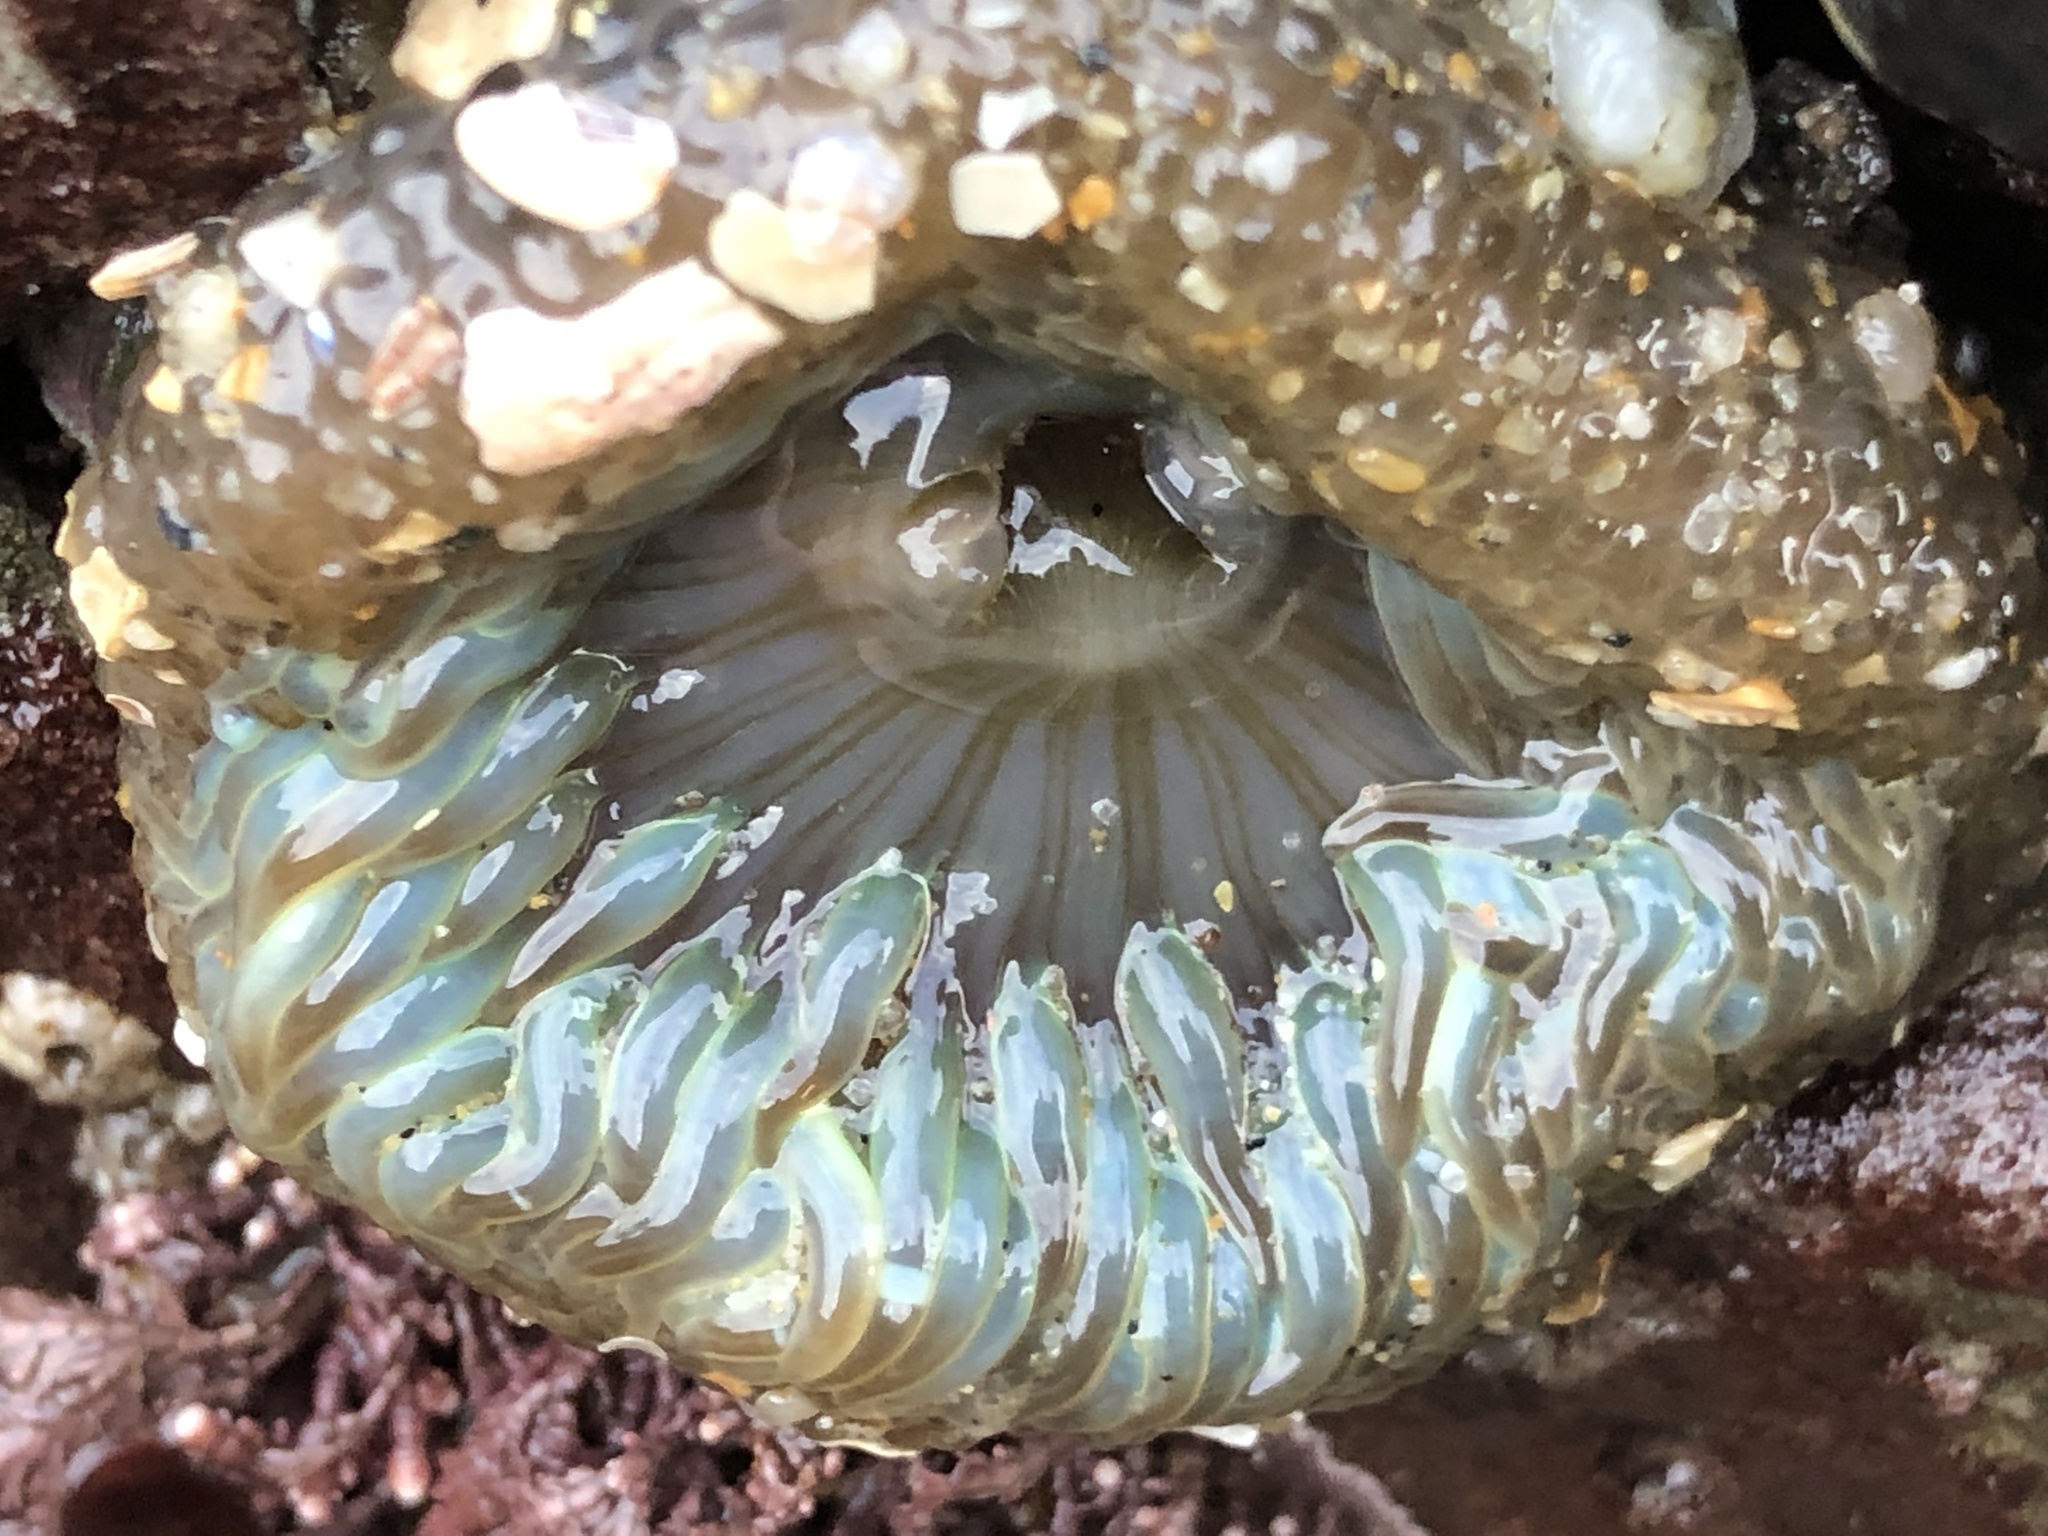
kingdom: Animalia
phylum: Cnidaria
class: Anthozoa
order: Actiniaria
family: Actiniidae
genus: Anthopleura
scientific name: Anthopleura sola
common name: Sun anemone
